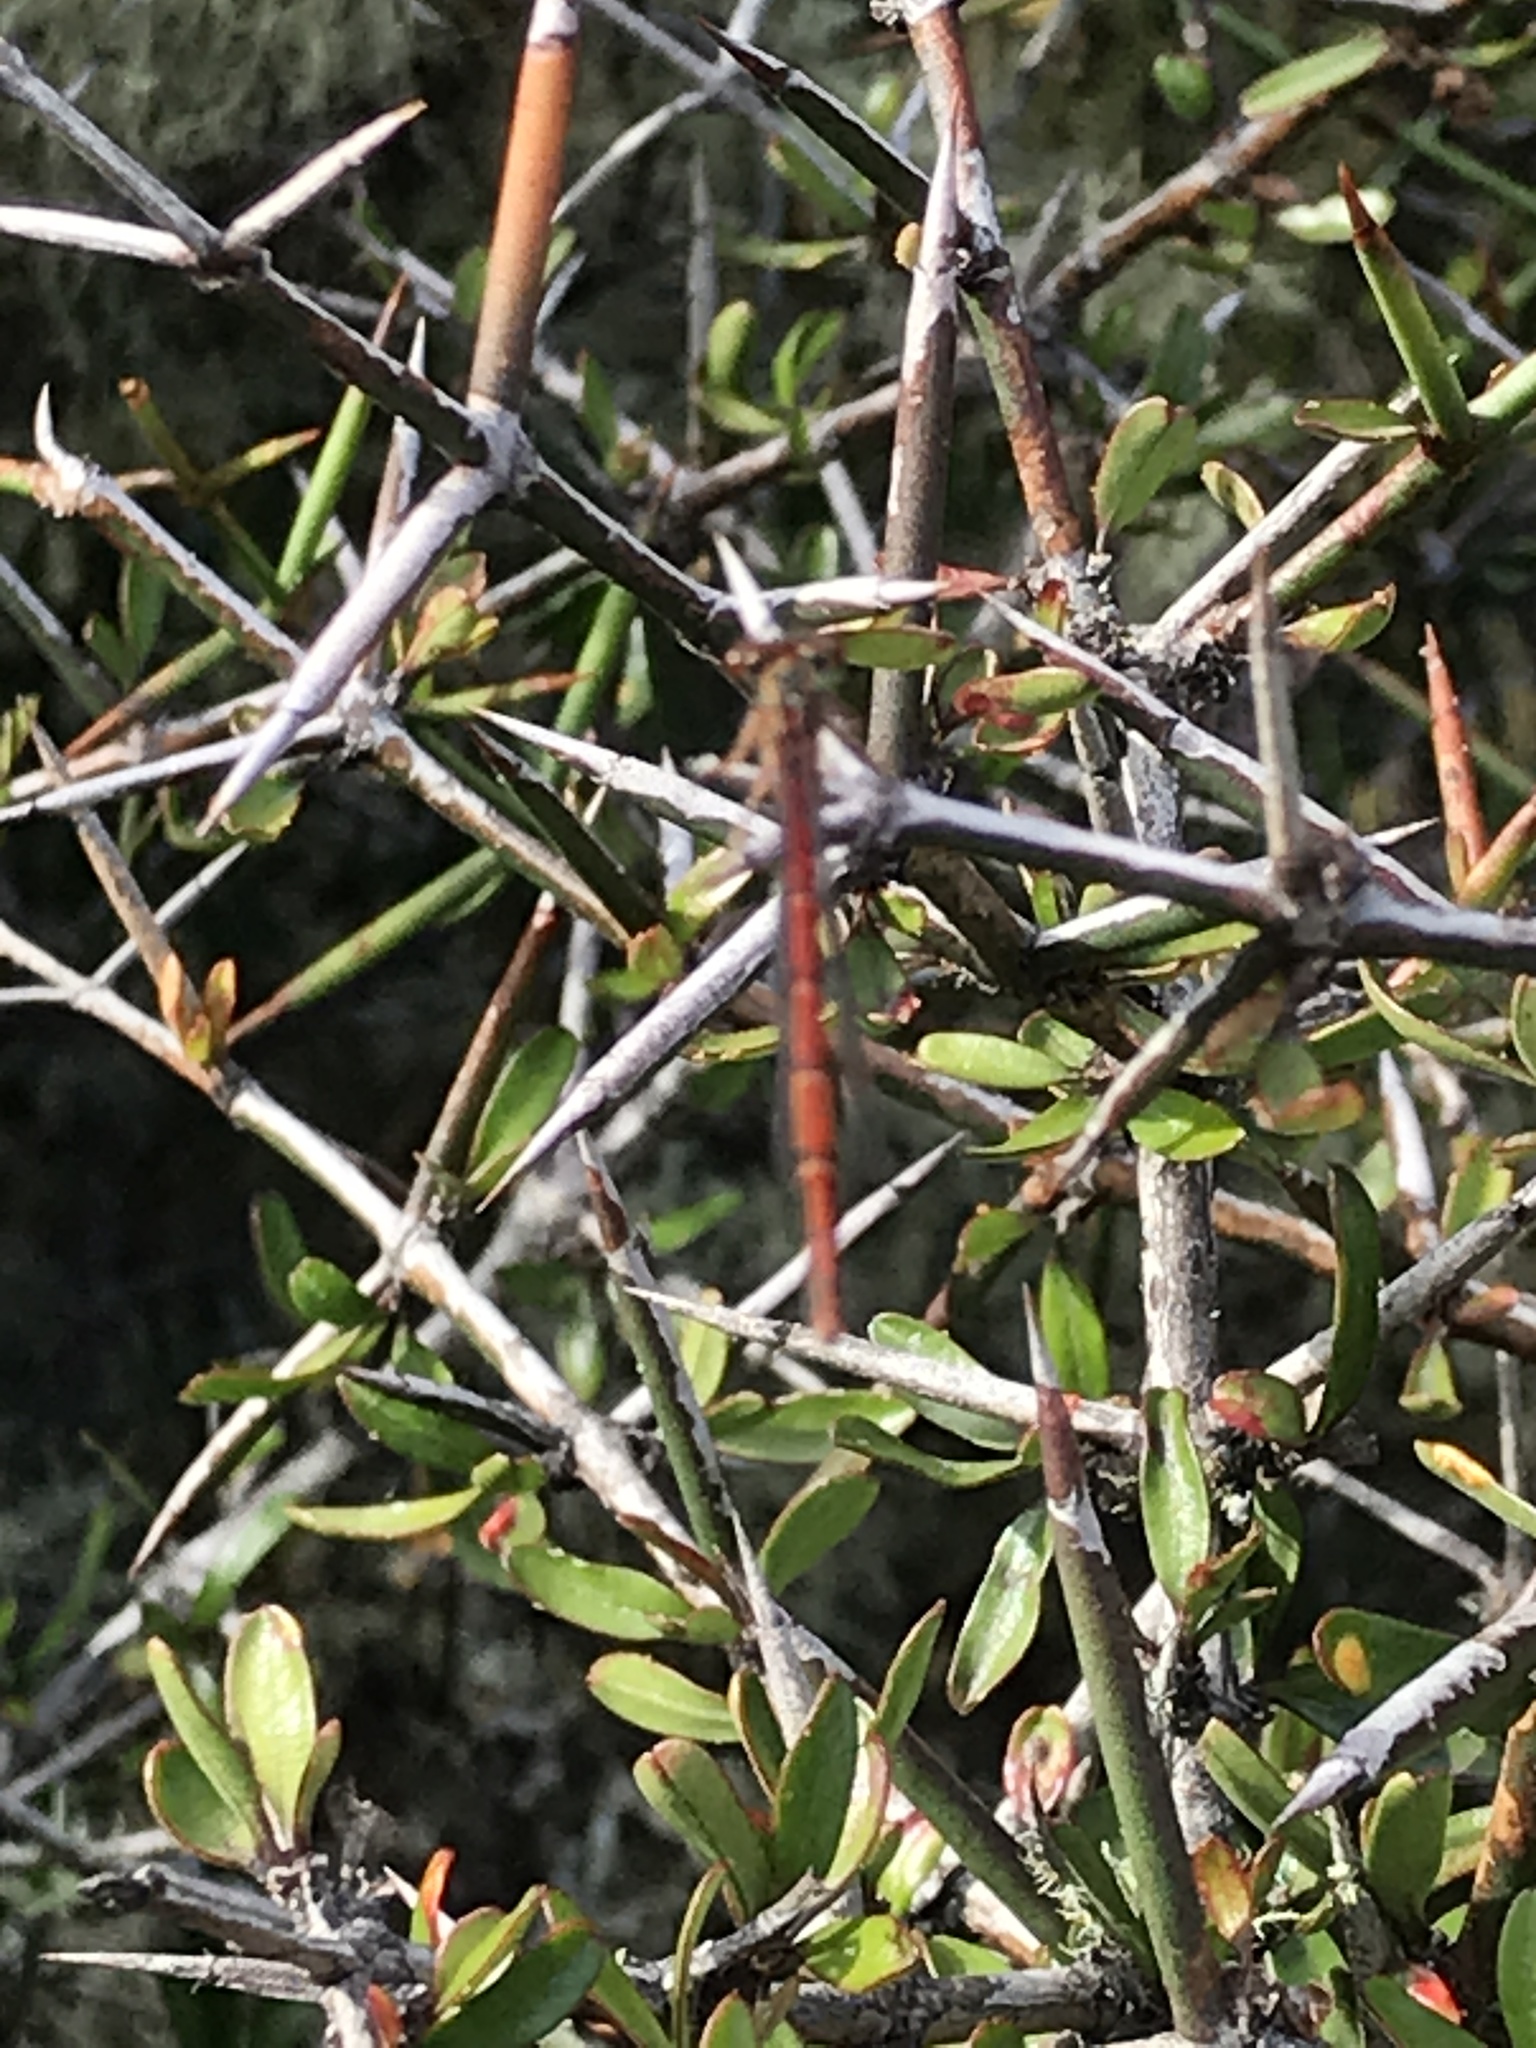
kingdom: Animalia
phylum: Arthropoda
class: Insecta
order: Odonata
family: Coenagrionidae
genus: Xanthocnemis
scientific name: Xanthocnemis zealandica
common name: Common redcoat damselfly
